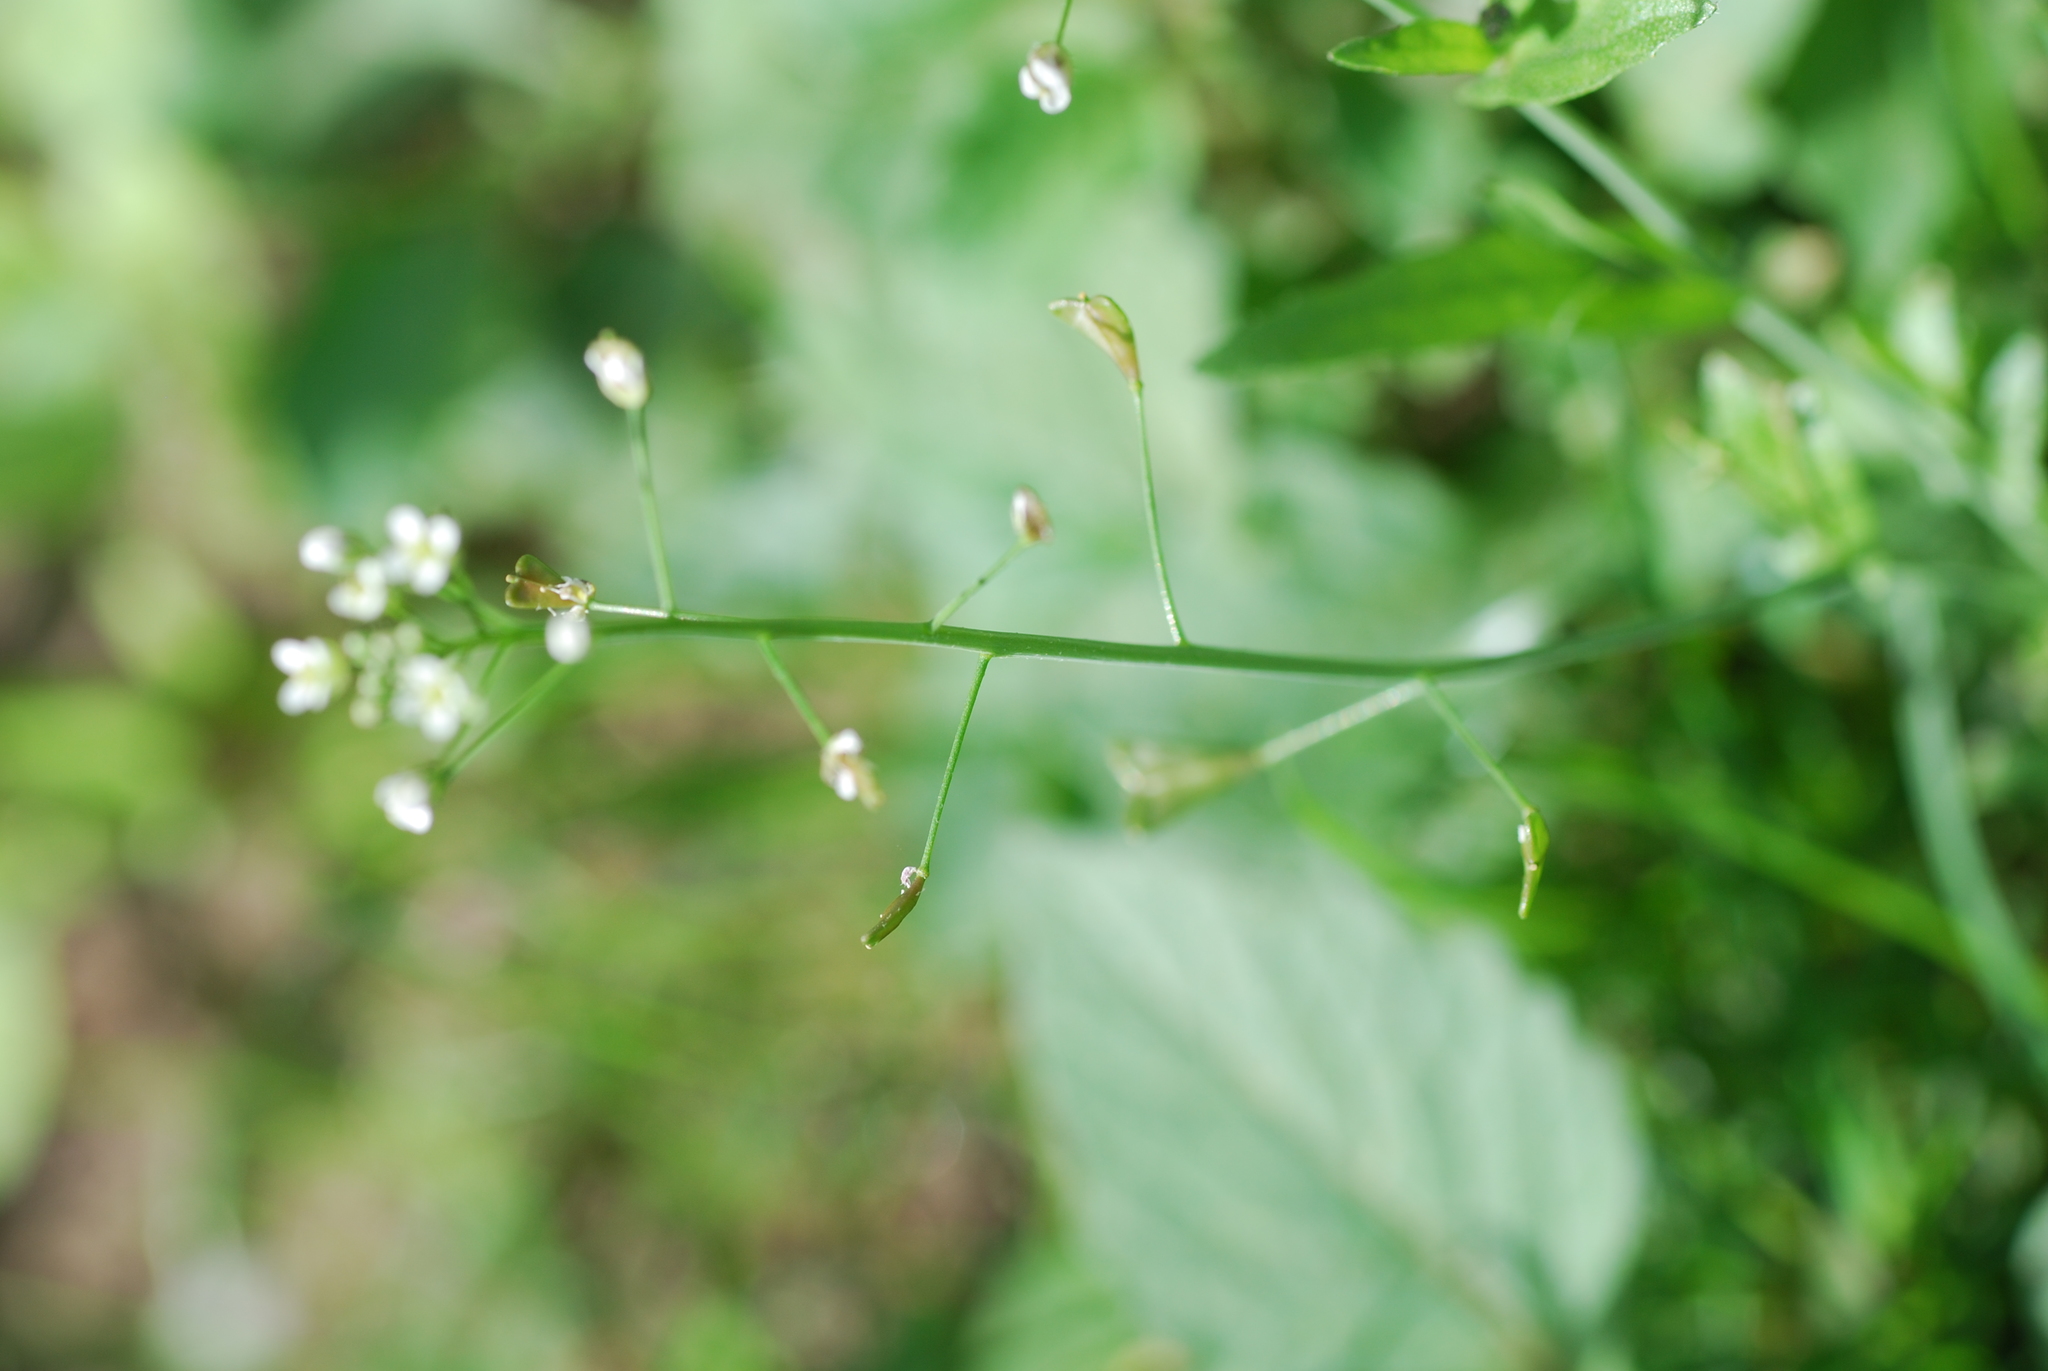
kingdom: Plantae
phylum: Tracheophyta
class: Magnoliopsida
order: Brassicales
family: Brassicaceae
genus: Capsella
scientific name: Capsella bursa-pastoris
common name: Shepherd's purse
